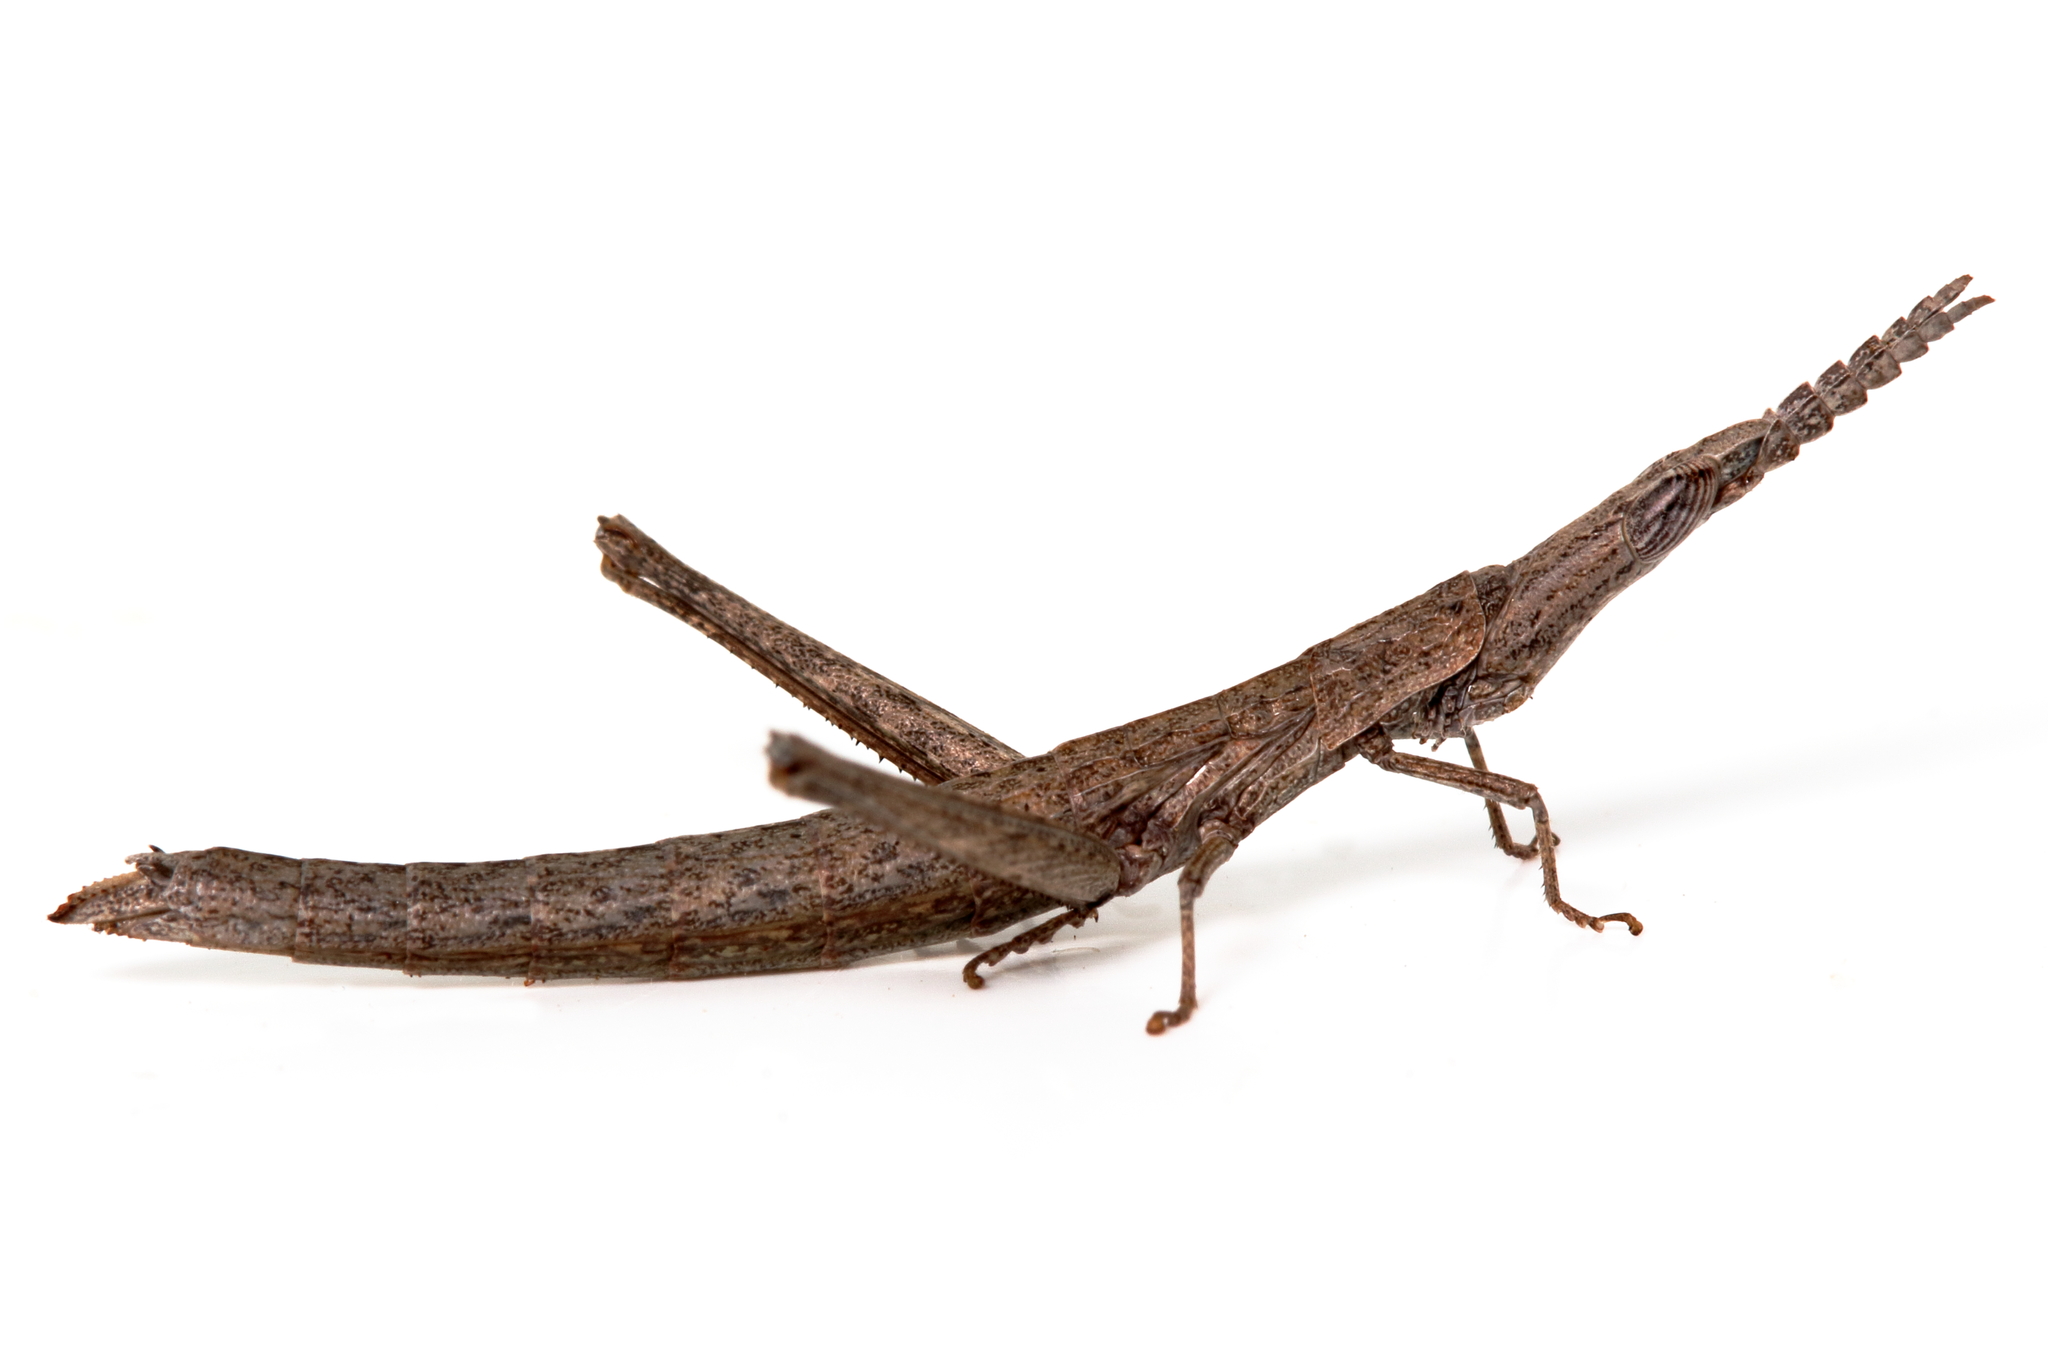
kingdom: Animalia
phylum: Arthropoda
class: Insecta
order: Orthoptera
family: Morabidae
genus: Vandiemenella
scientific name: Vandiemenella pichirichi
